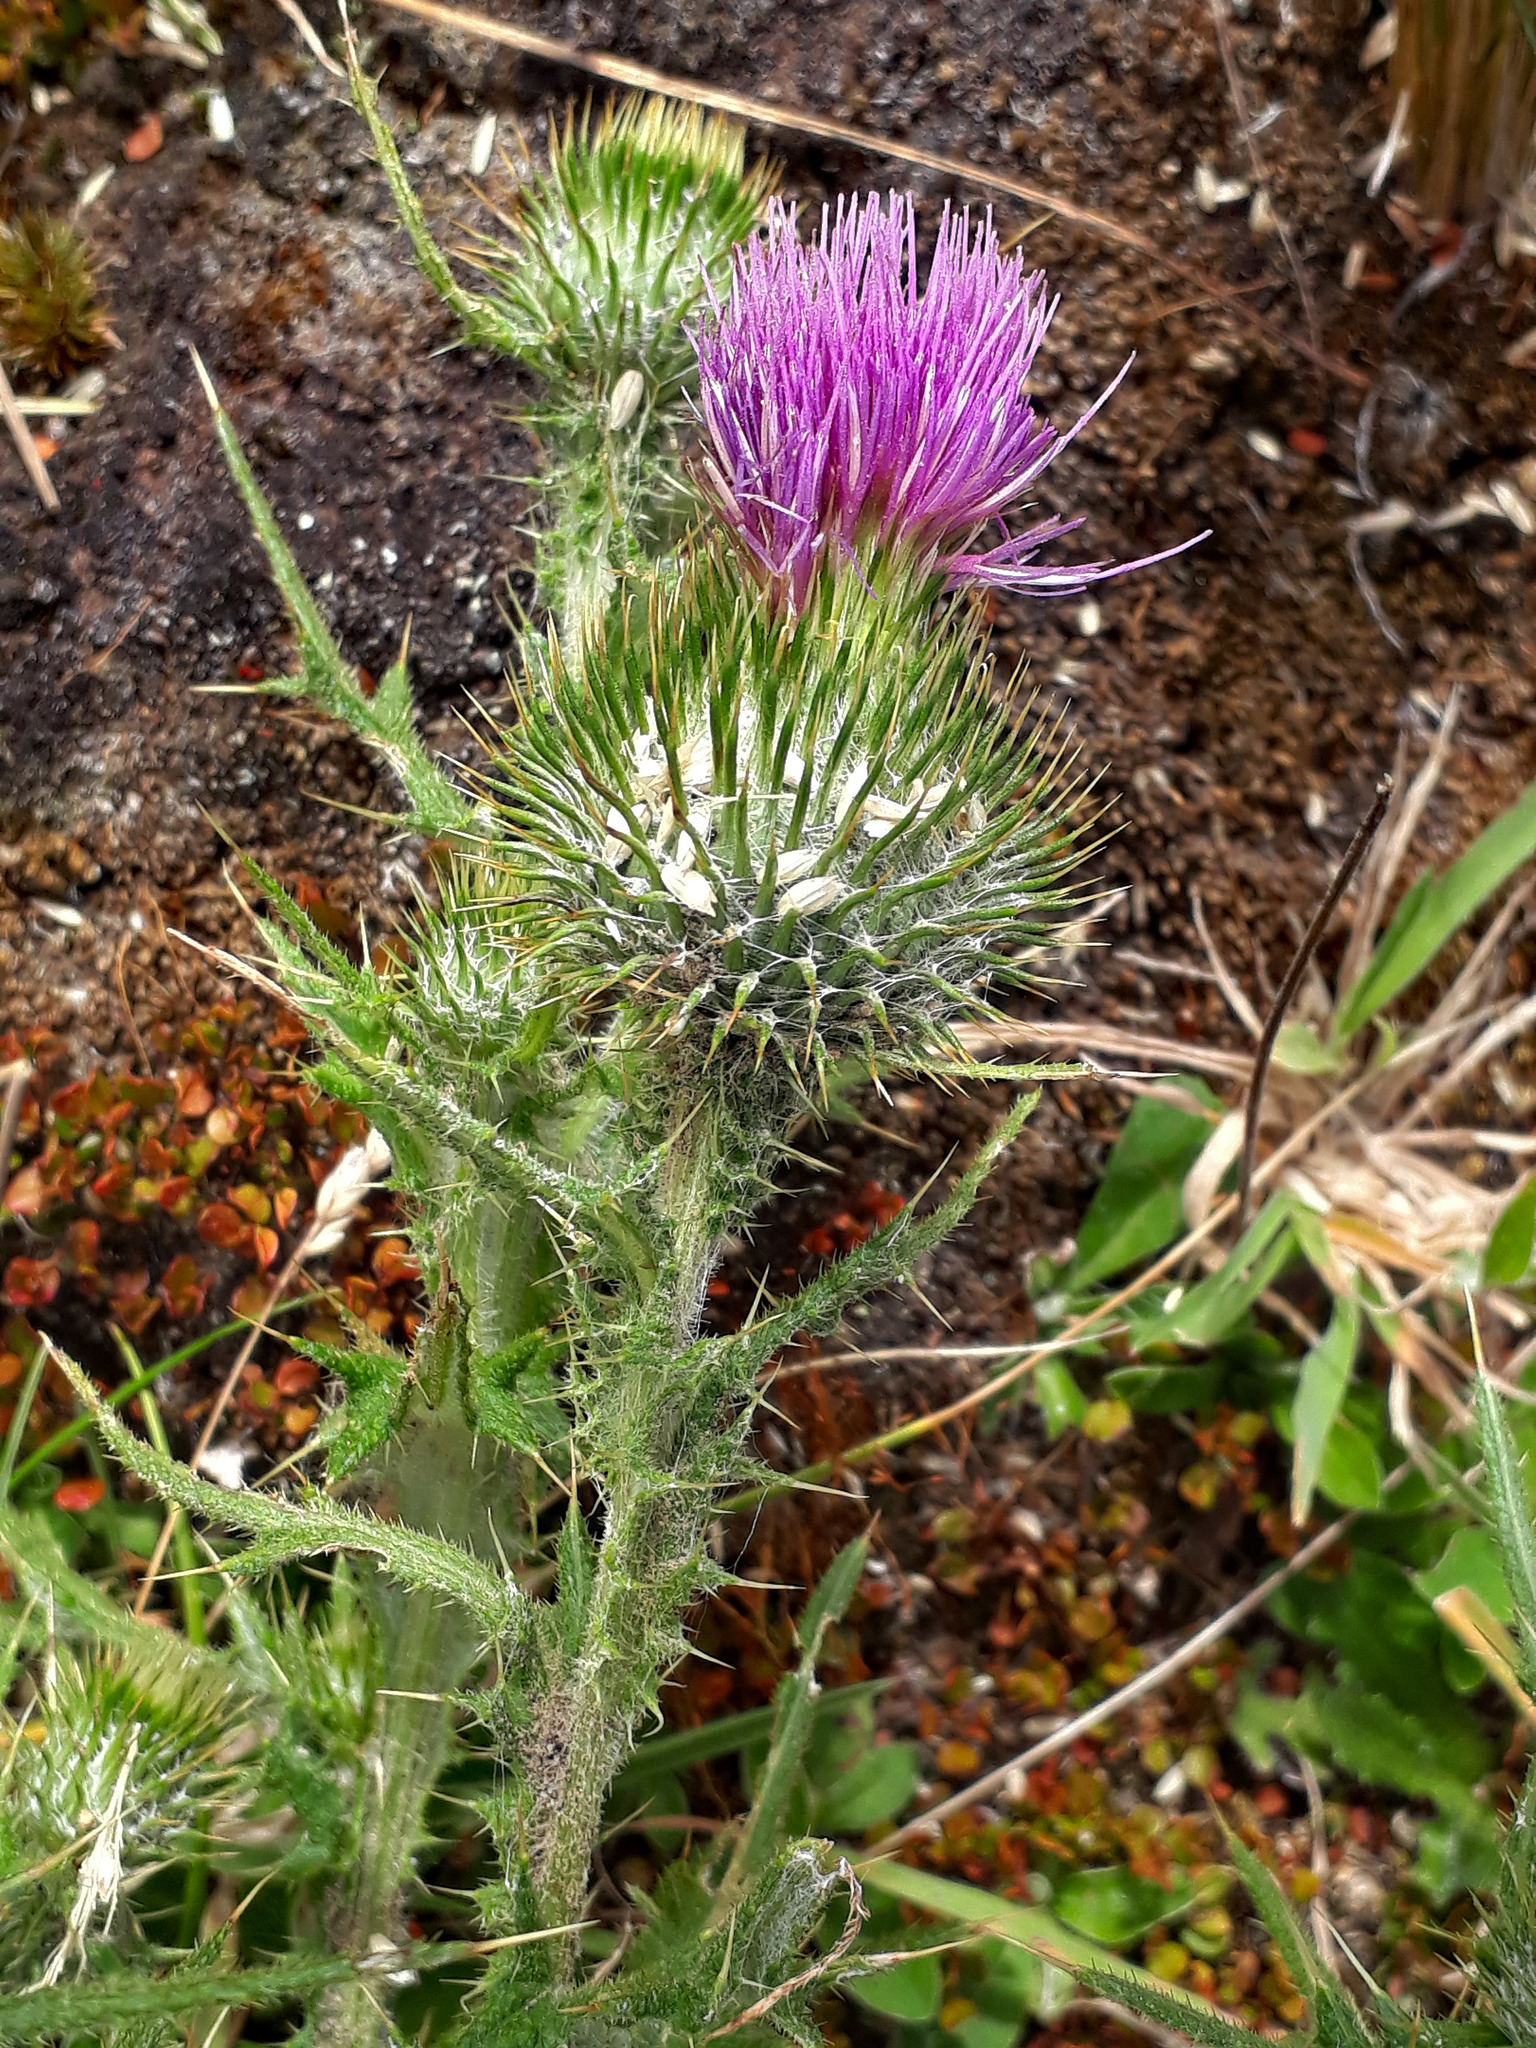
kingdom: Plantae
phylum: Tracheophyta
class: Magnoliopsida
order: Asterales
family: Asteraceae
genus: Cirsium
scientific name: Cirsium vulgare
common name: Bull thistle
